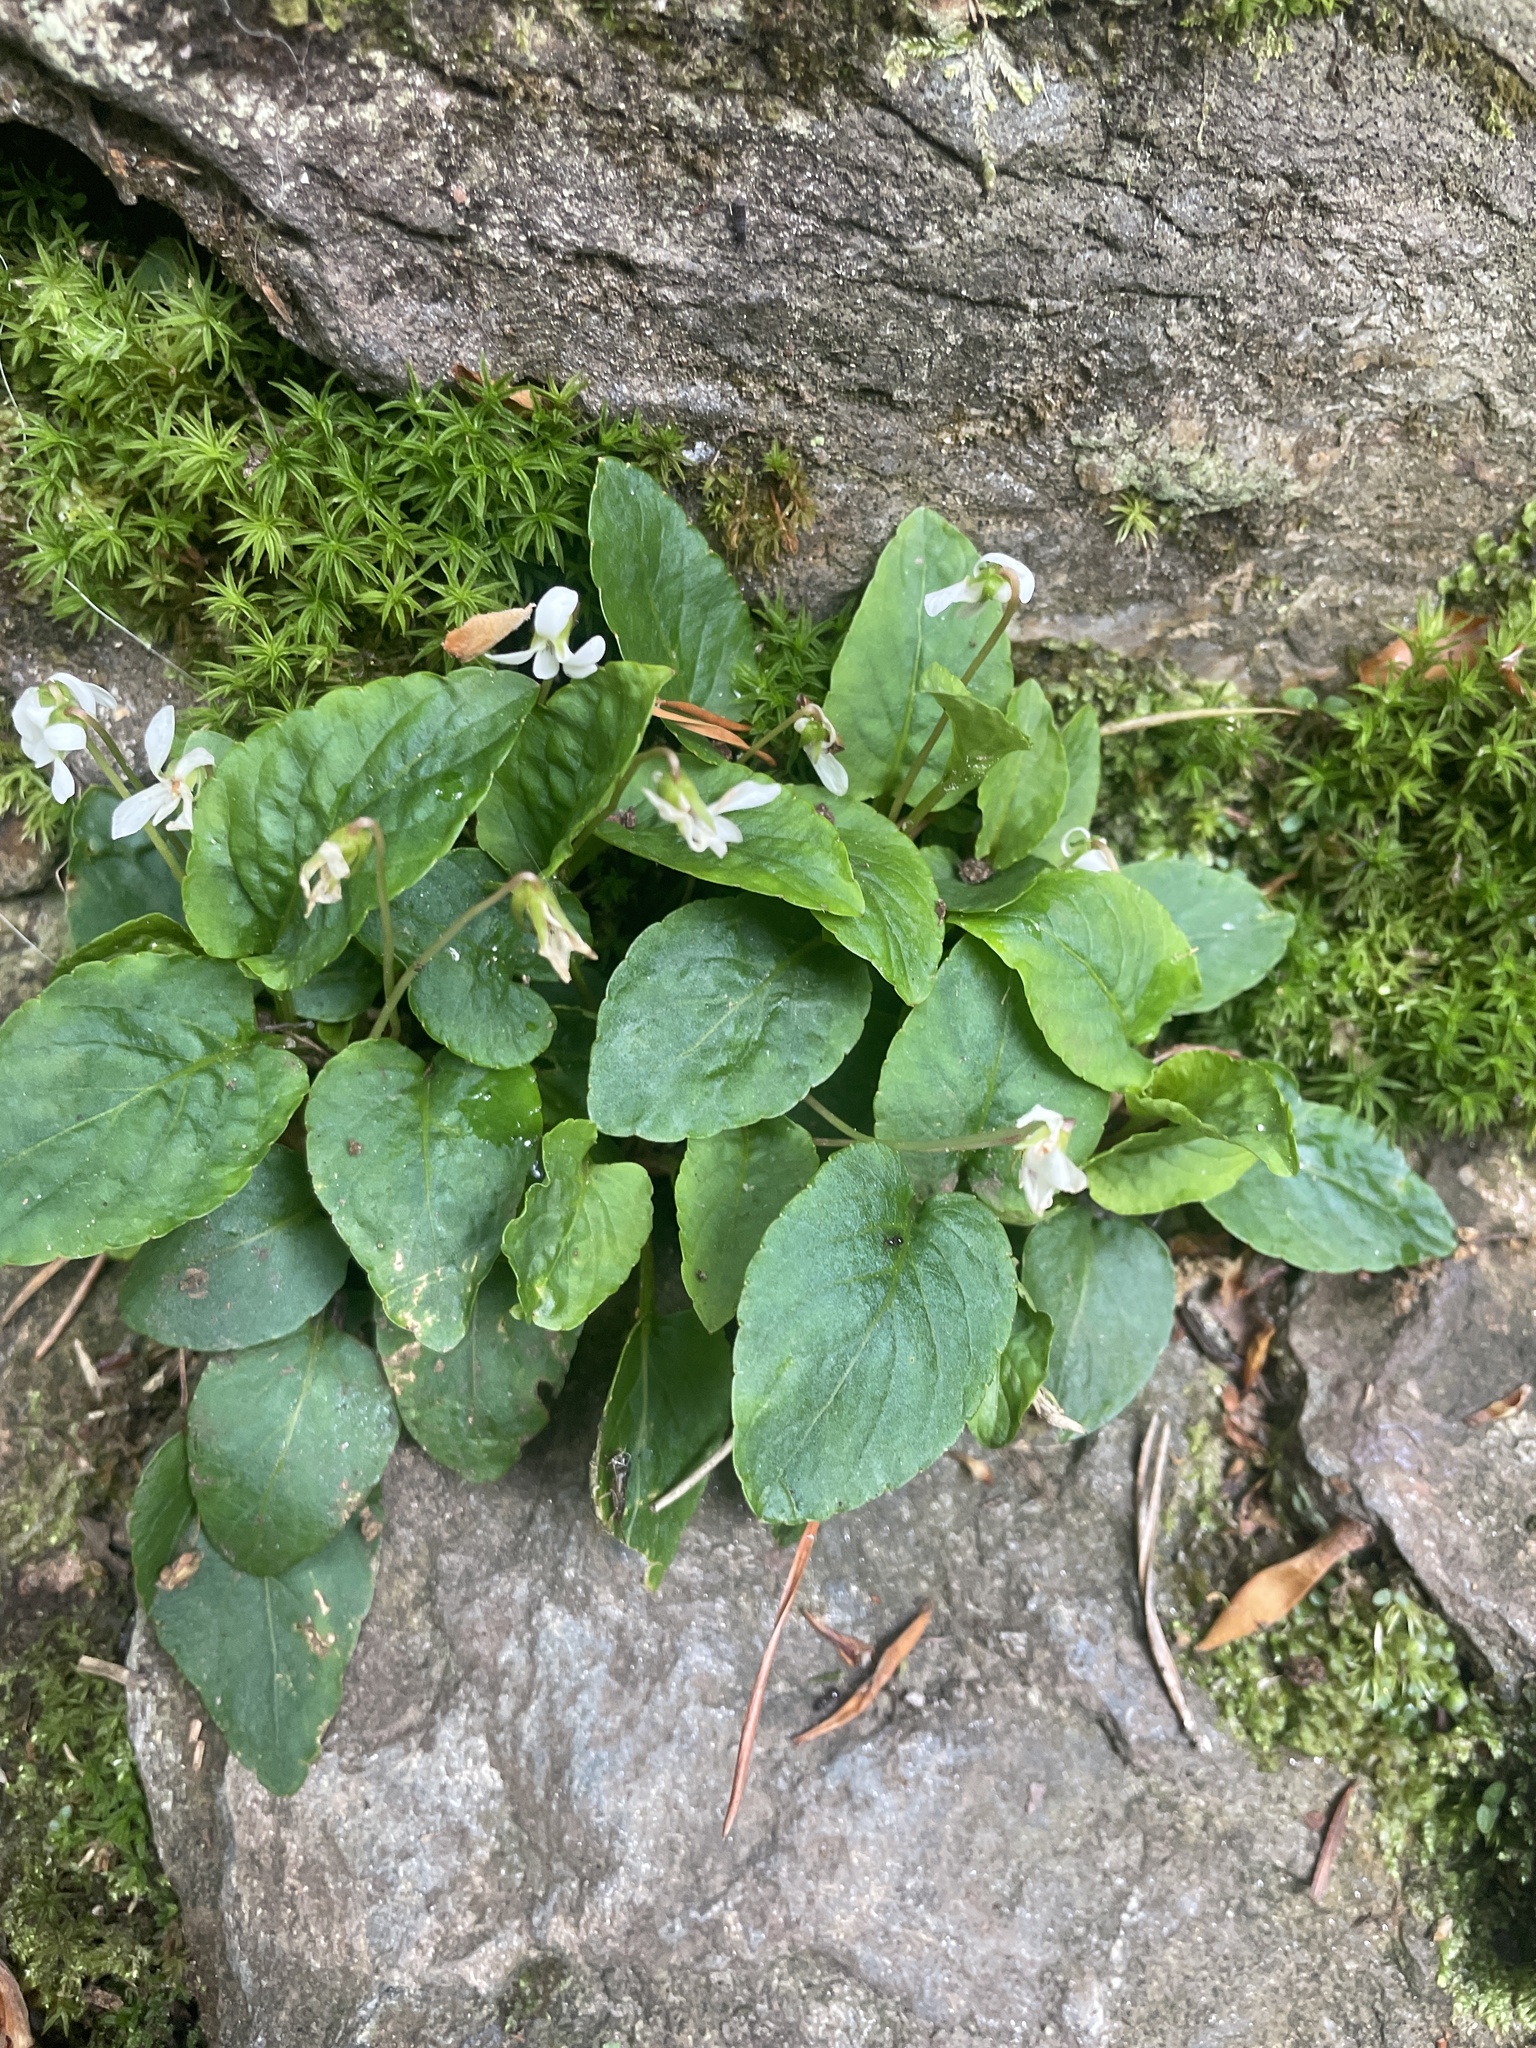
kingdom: Plantae
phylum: Tracheophyta
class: Magnoliopsida
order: Malpighiales
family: Violaceae
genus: Viola
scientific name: Viola primulifolia
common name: Primrose-leaf violet
